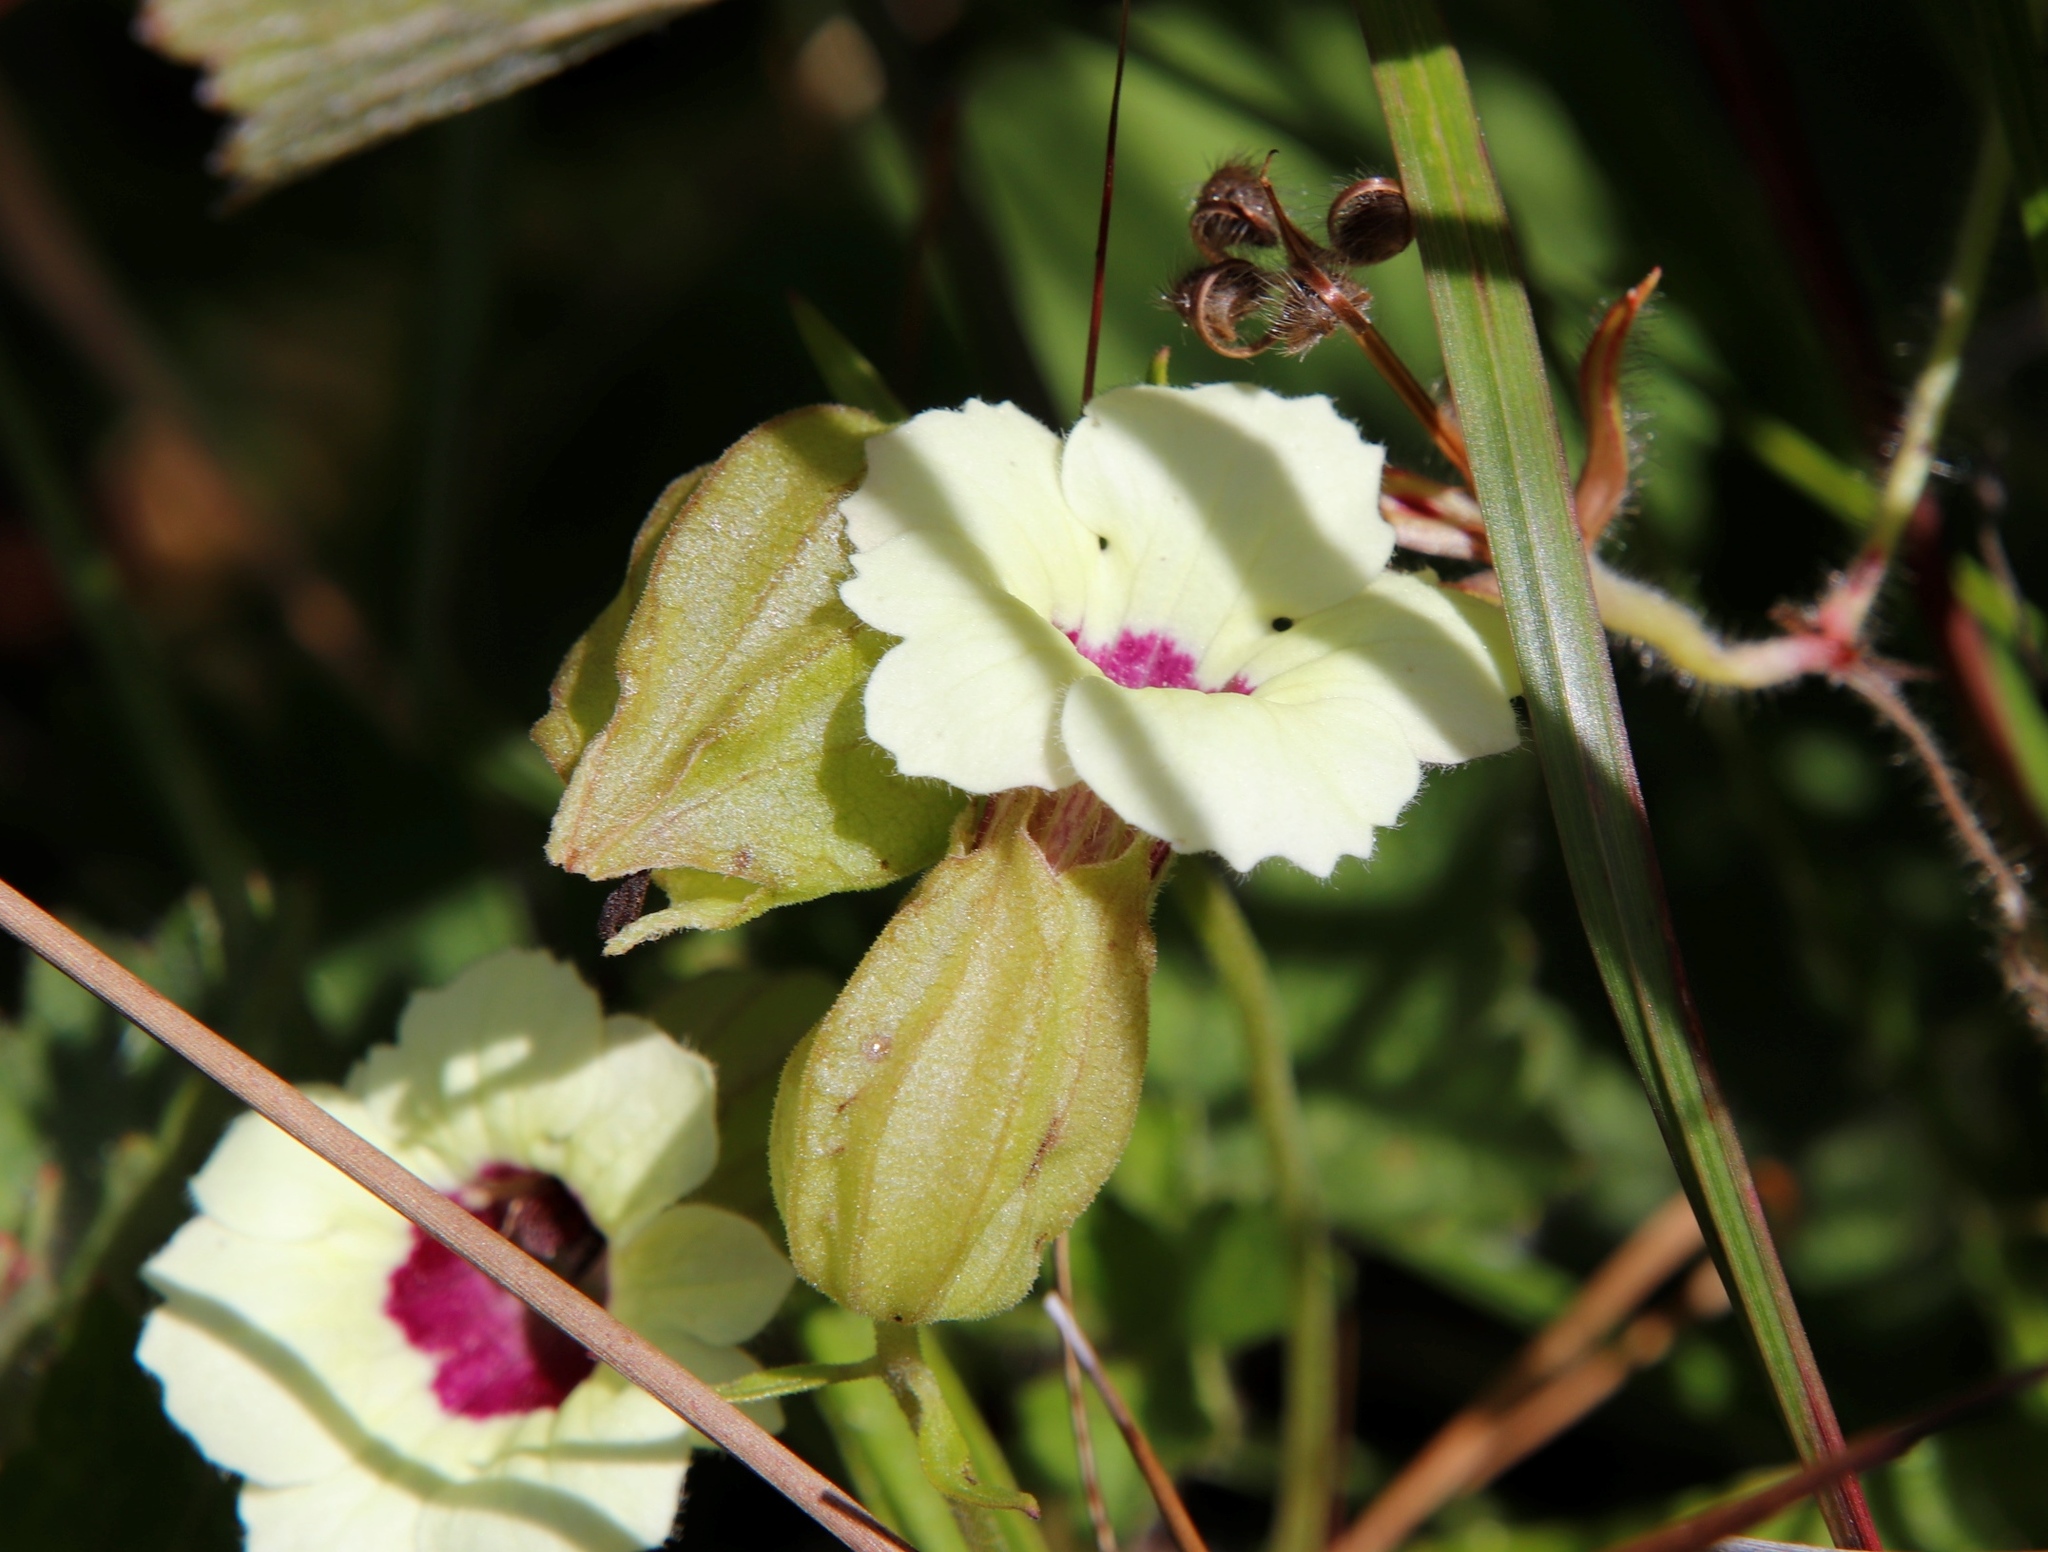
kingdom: Plantae
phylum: Tracheophyta
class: Magnoliopsida
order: Lamiales
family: Orobanchaceae
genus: Melasma
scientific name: Melasma scabrum
